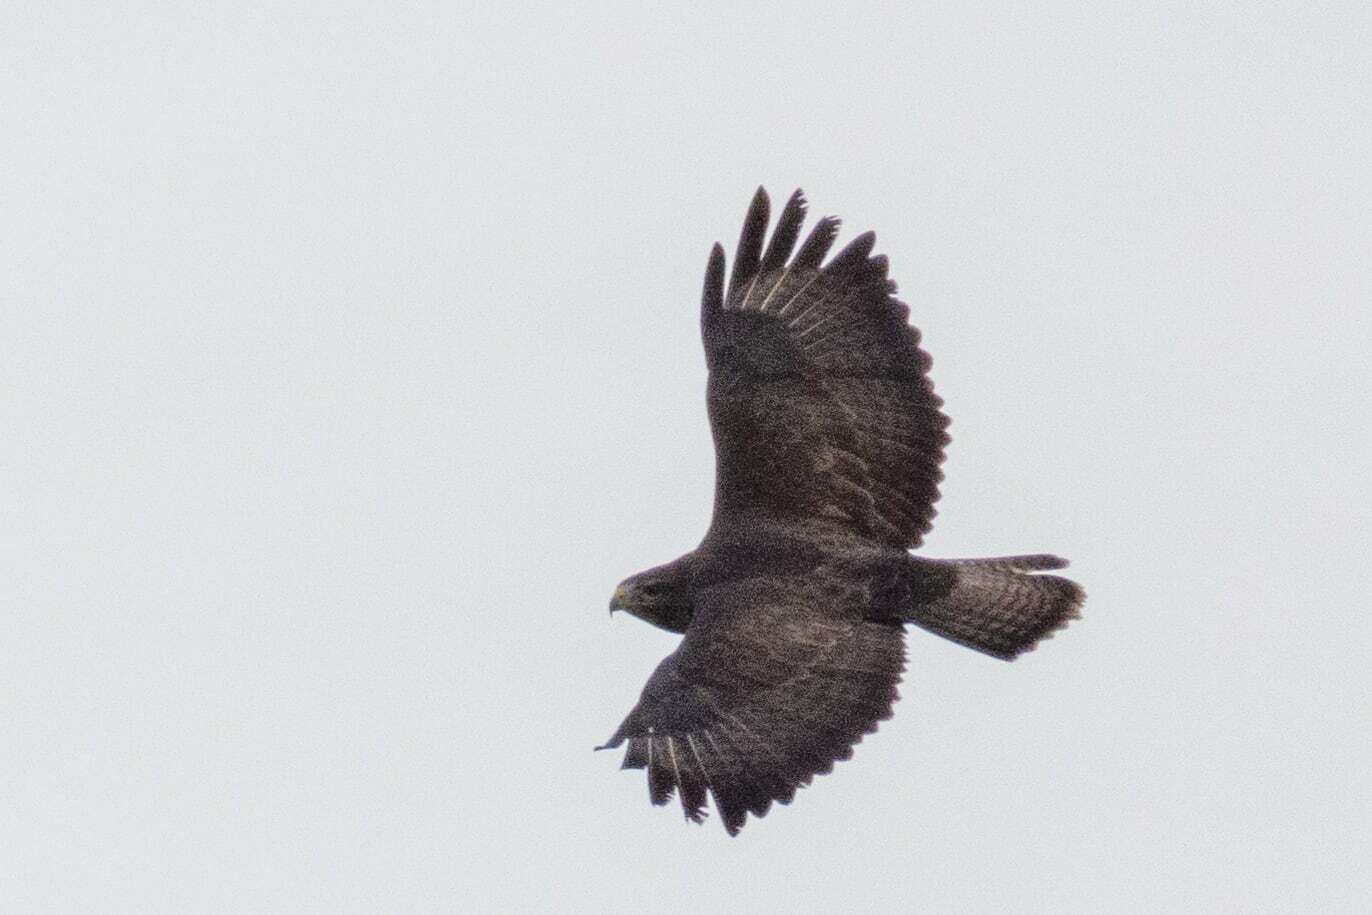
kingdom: Animalia
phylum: Chordata
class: Aves
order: Accipitriformes
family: Accipitridae
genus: Buteo
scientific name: Buteo buteo
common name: Common buzzard
